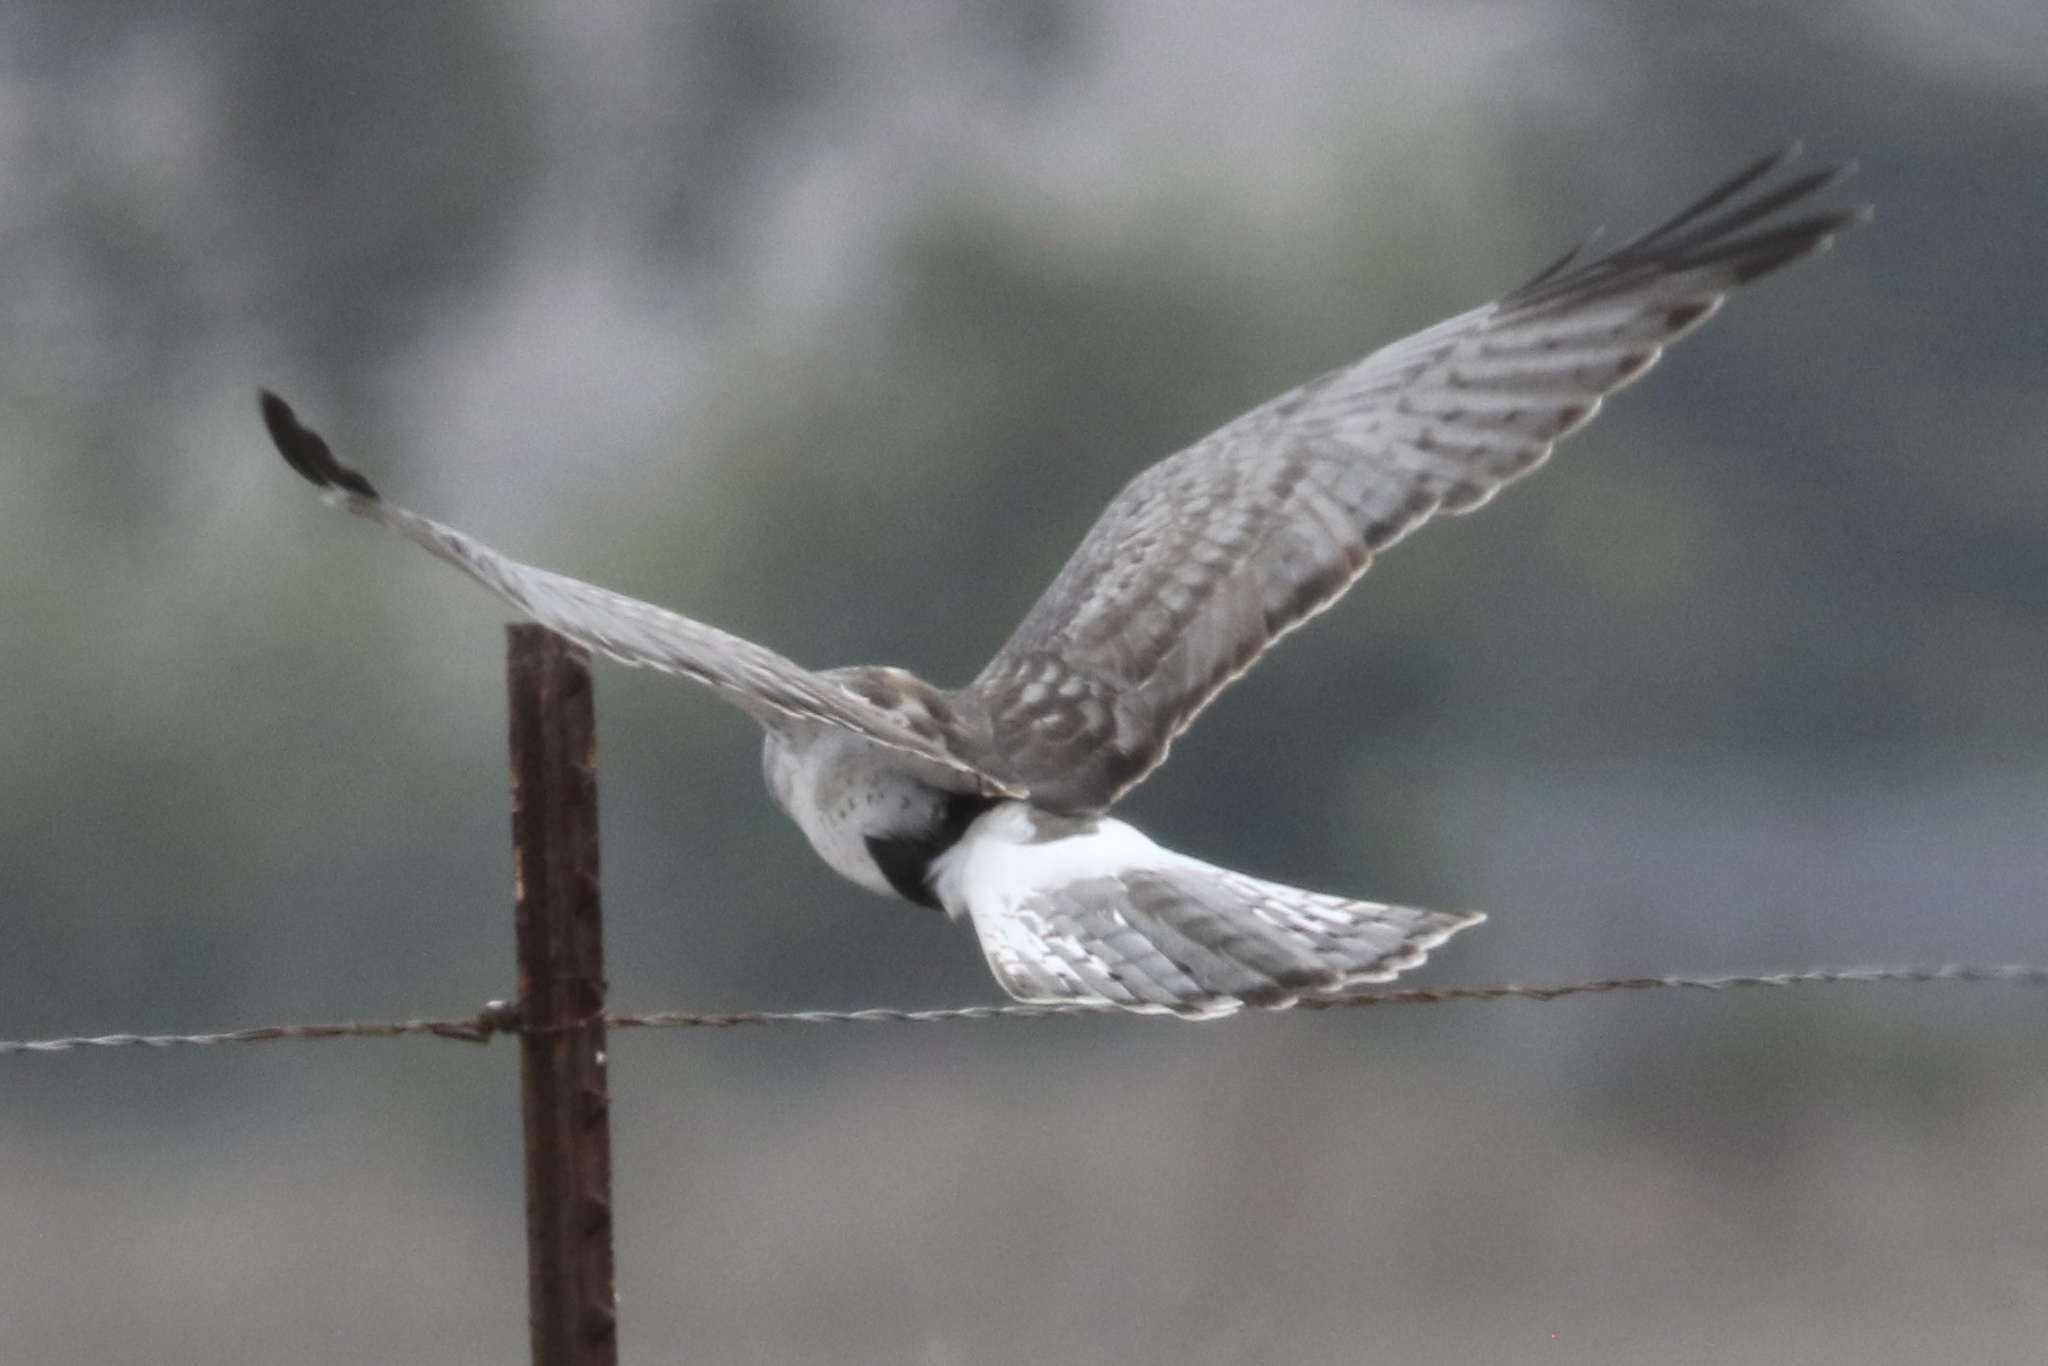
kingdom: Animalia
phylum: Chordata
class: Aves
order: Accipitriformes
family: Accipitridae
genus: Circus
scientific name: Circus cyaneus
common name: Hen harrier
